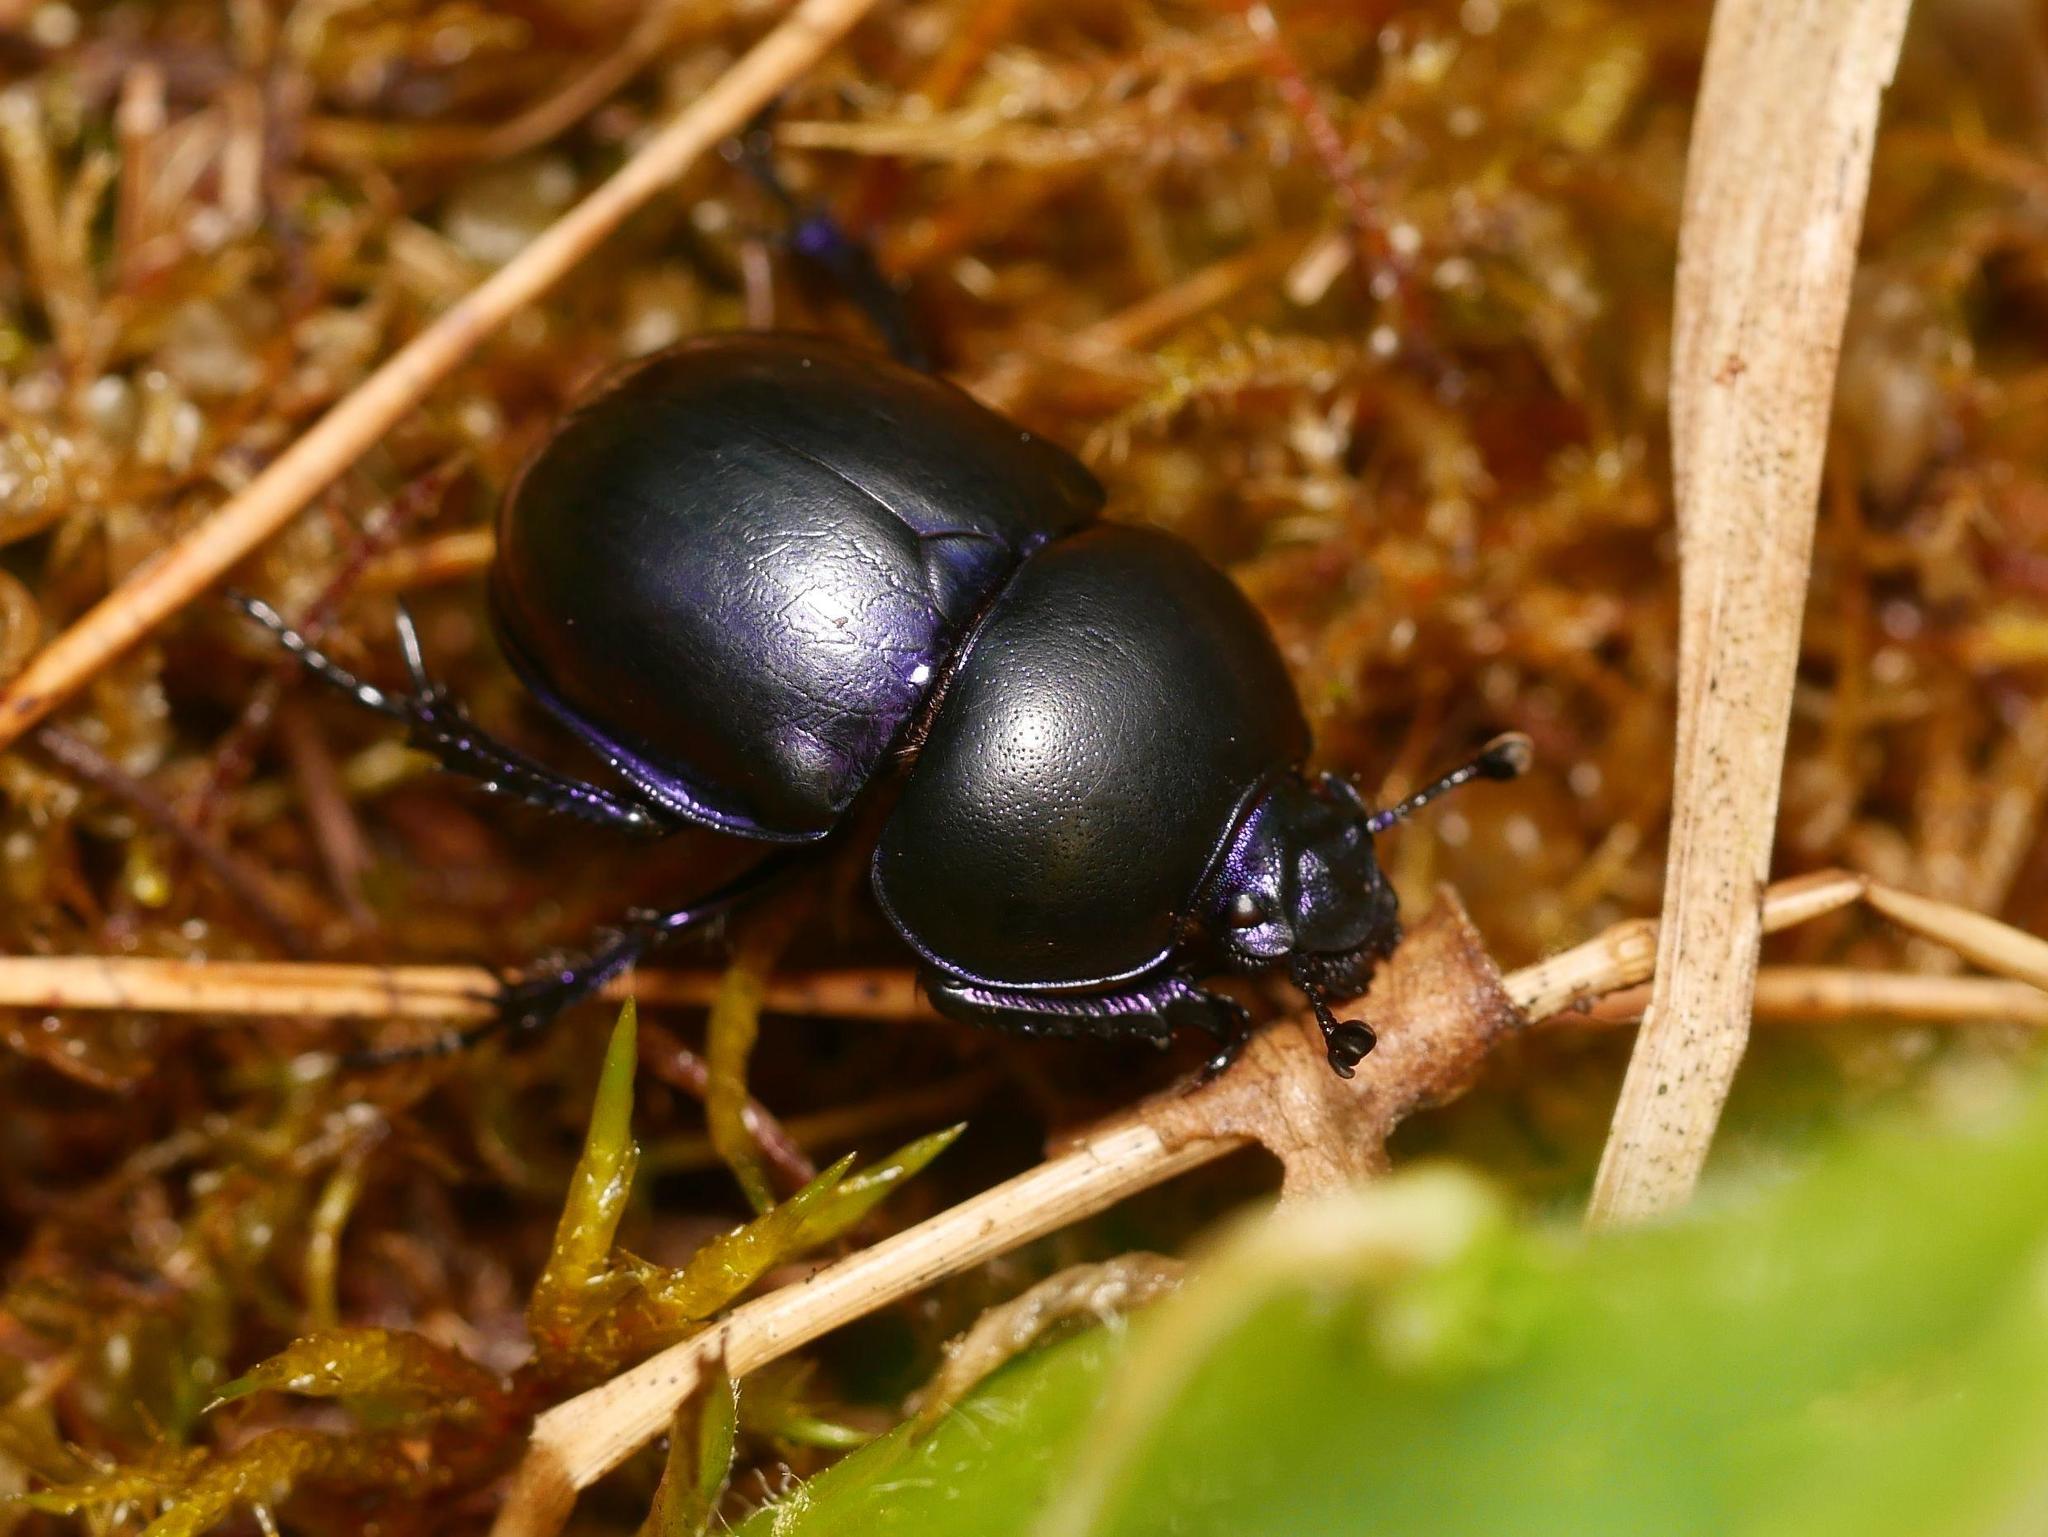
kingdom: Animalia
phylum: Arthropoda
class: Insecta
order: Coleoptera
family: Geotrupidae
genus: Trypocopris
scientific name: Trypocopris vernalis
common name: Spring dumbledor
